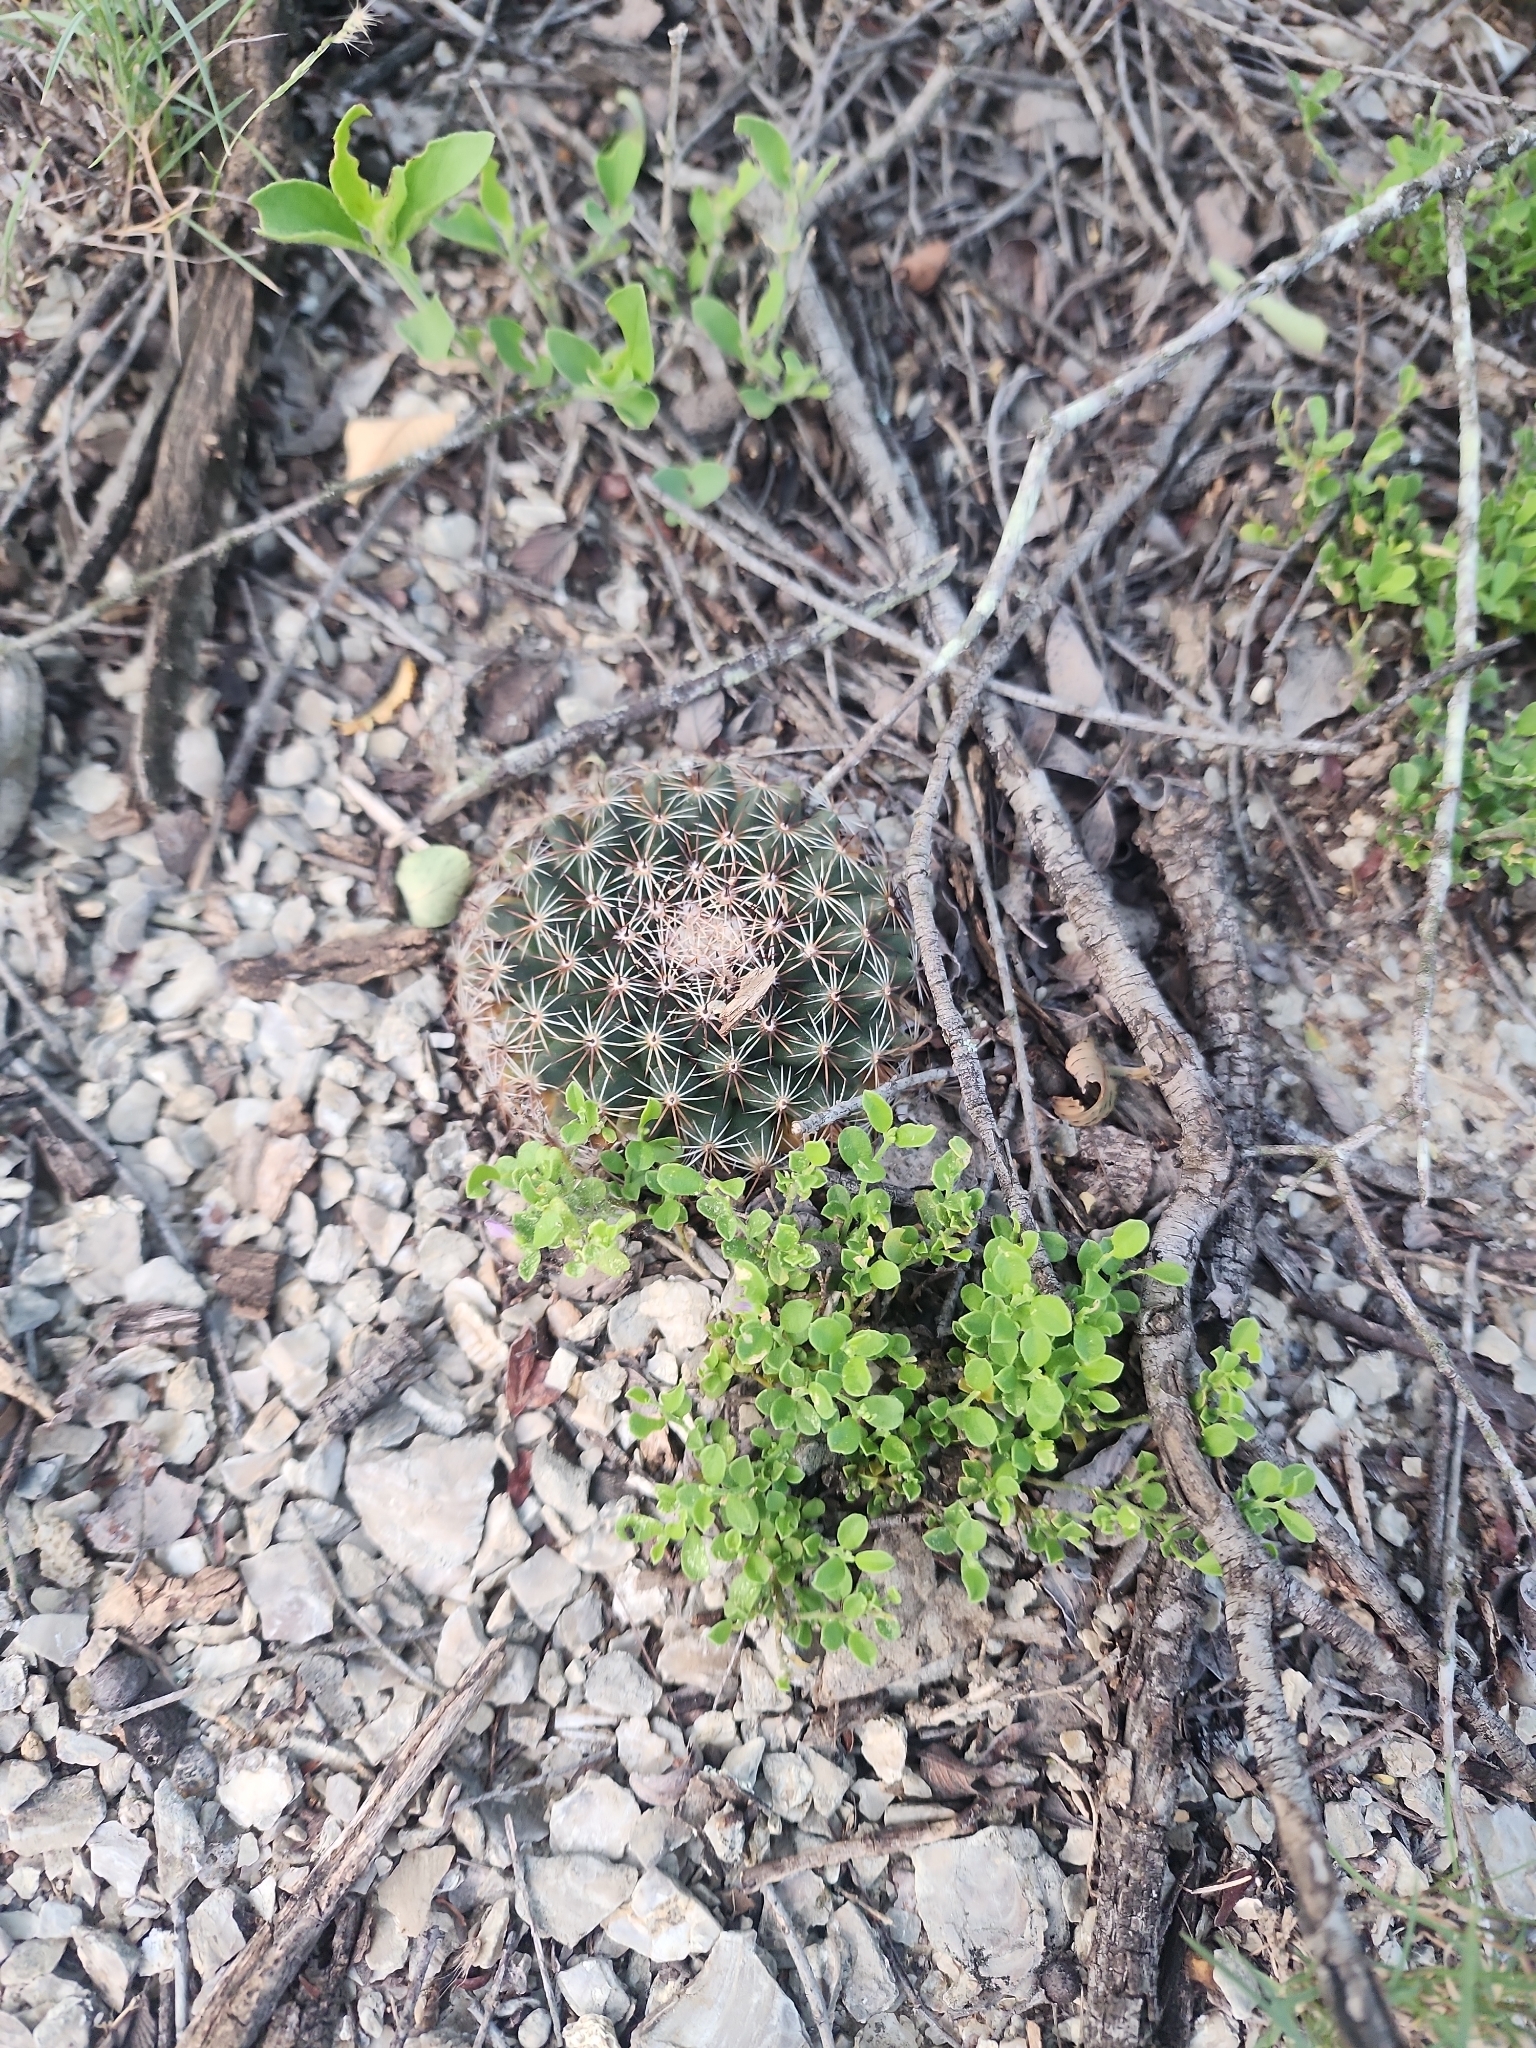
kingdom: Plantae
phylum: Tracheophyta
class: Magnoliopsida
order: Caryophyllales
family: Cactaceae
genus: Mammillaria
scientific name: Mammillaria heyderi
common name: Little nipple cactus
